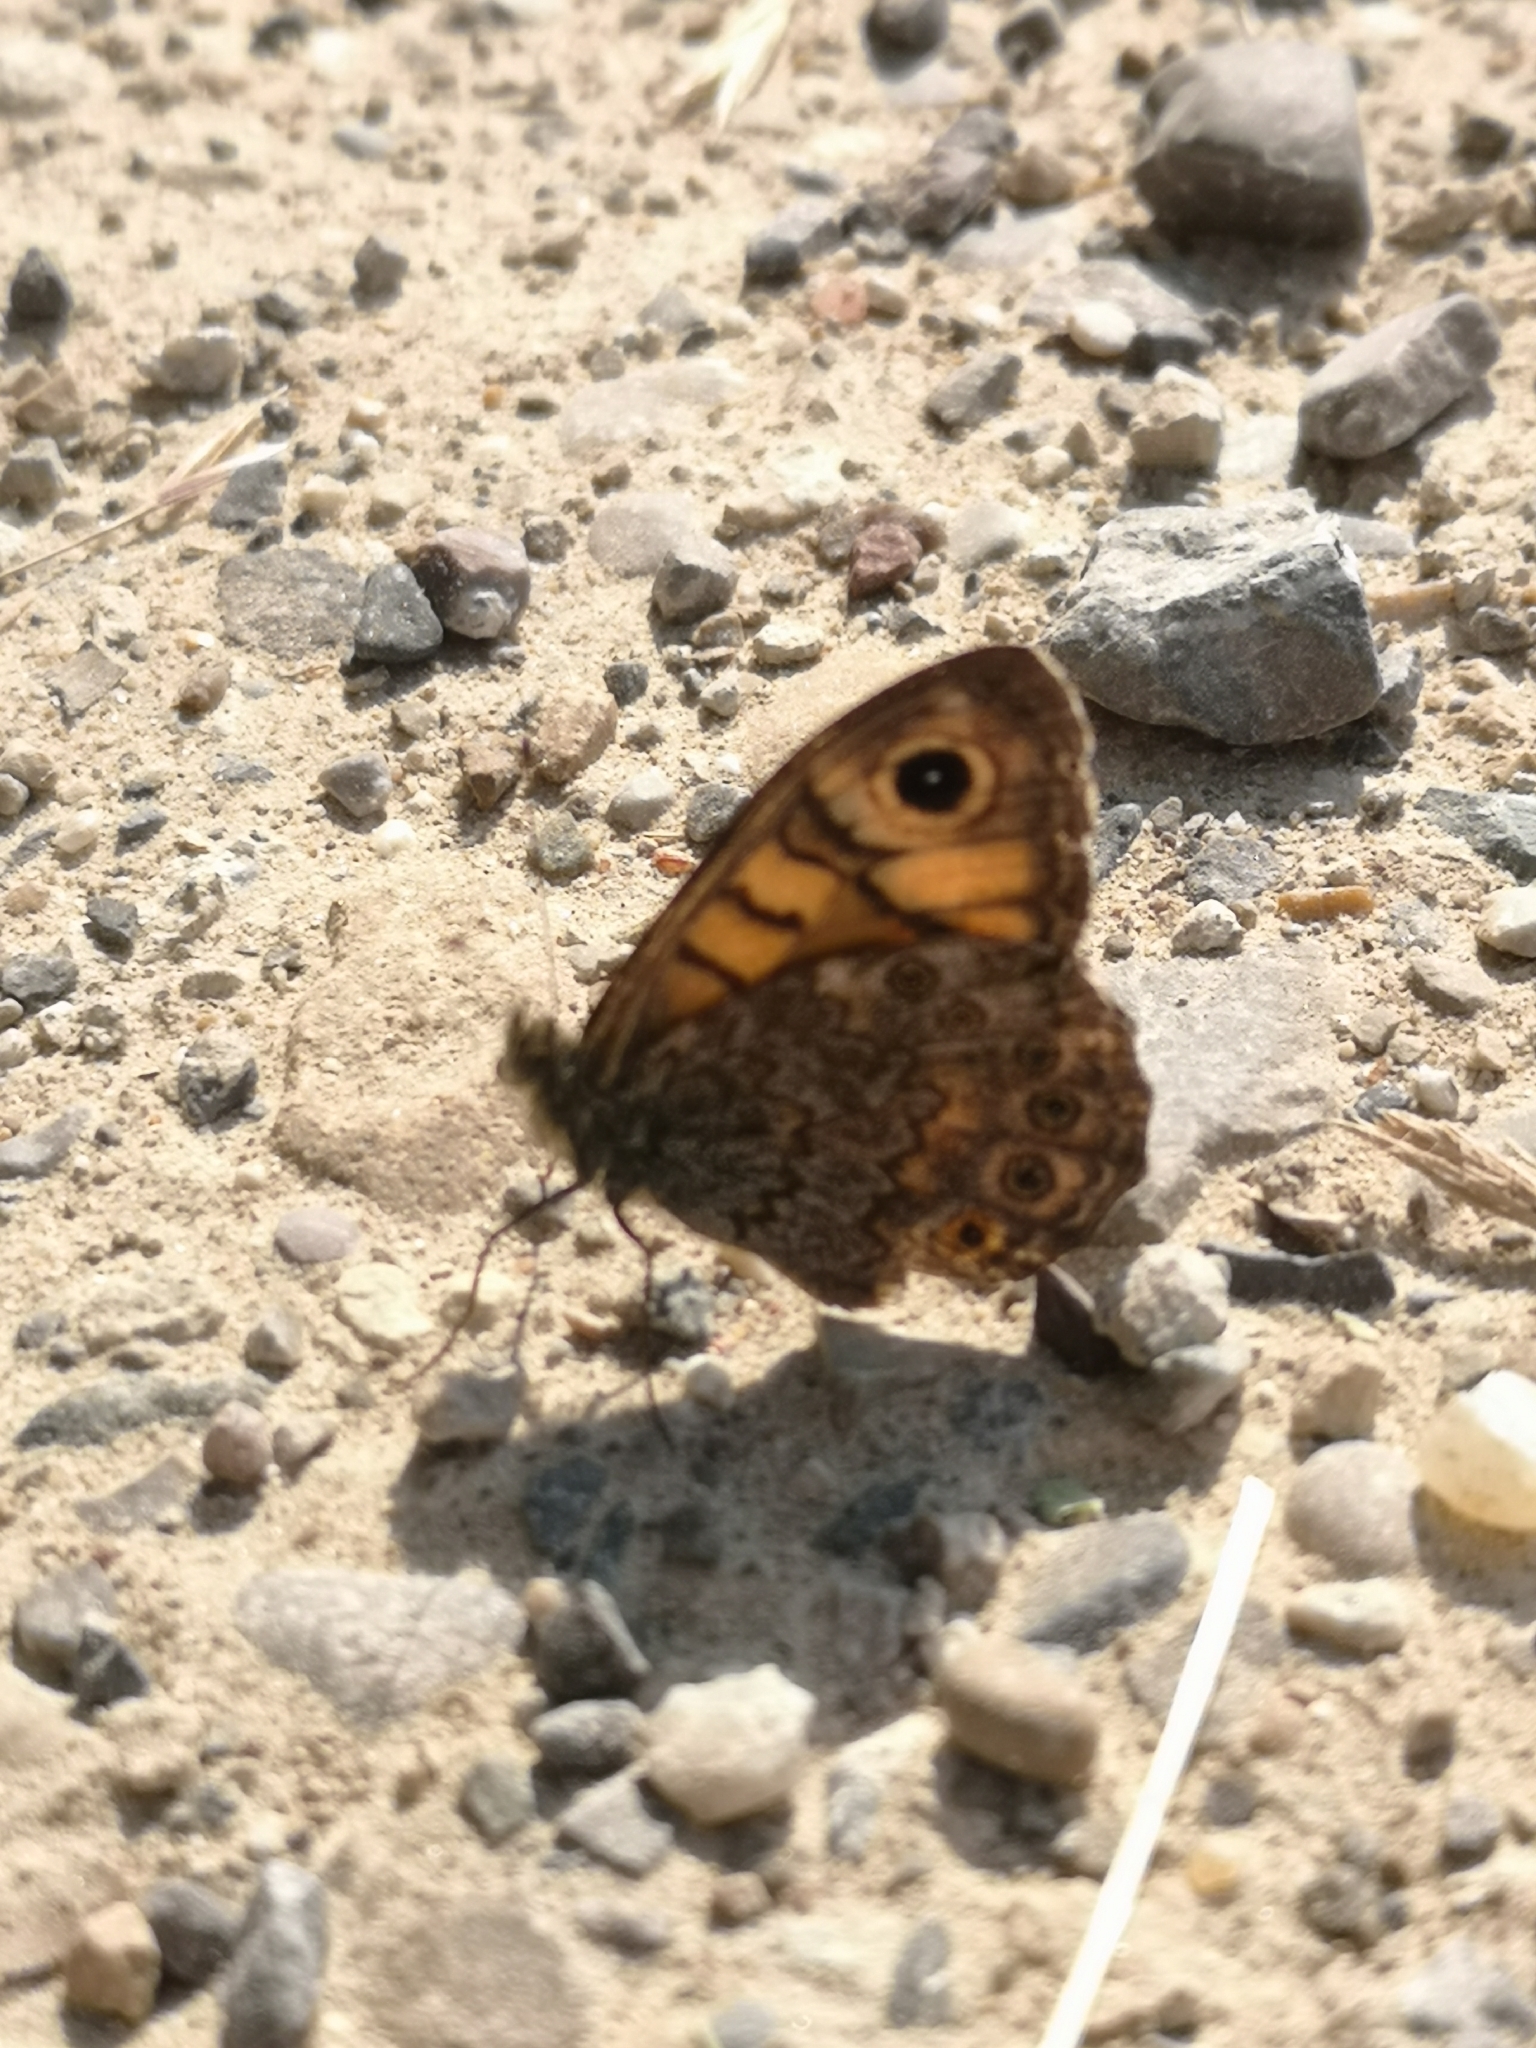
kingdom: Animalia
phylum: Arthropoda
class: Insecta
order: Lepidoptera
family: Nymphalidae
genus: Pararge
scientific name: Pararge Lasiommata megera
